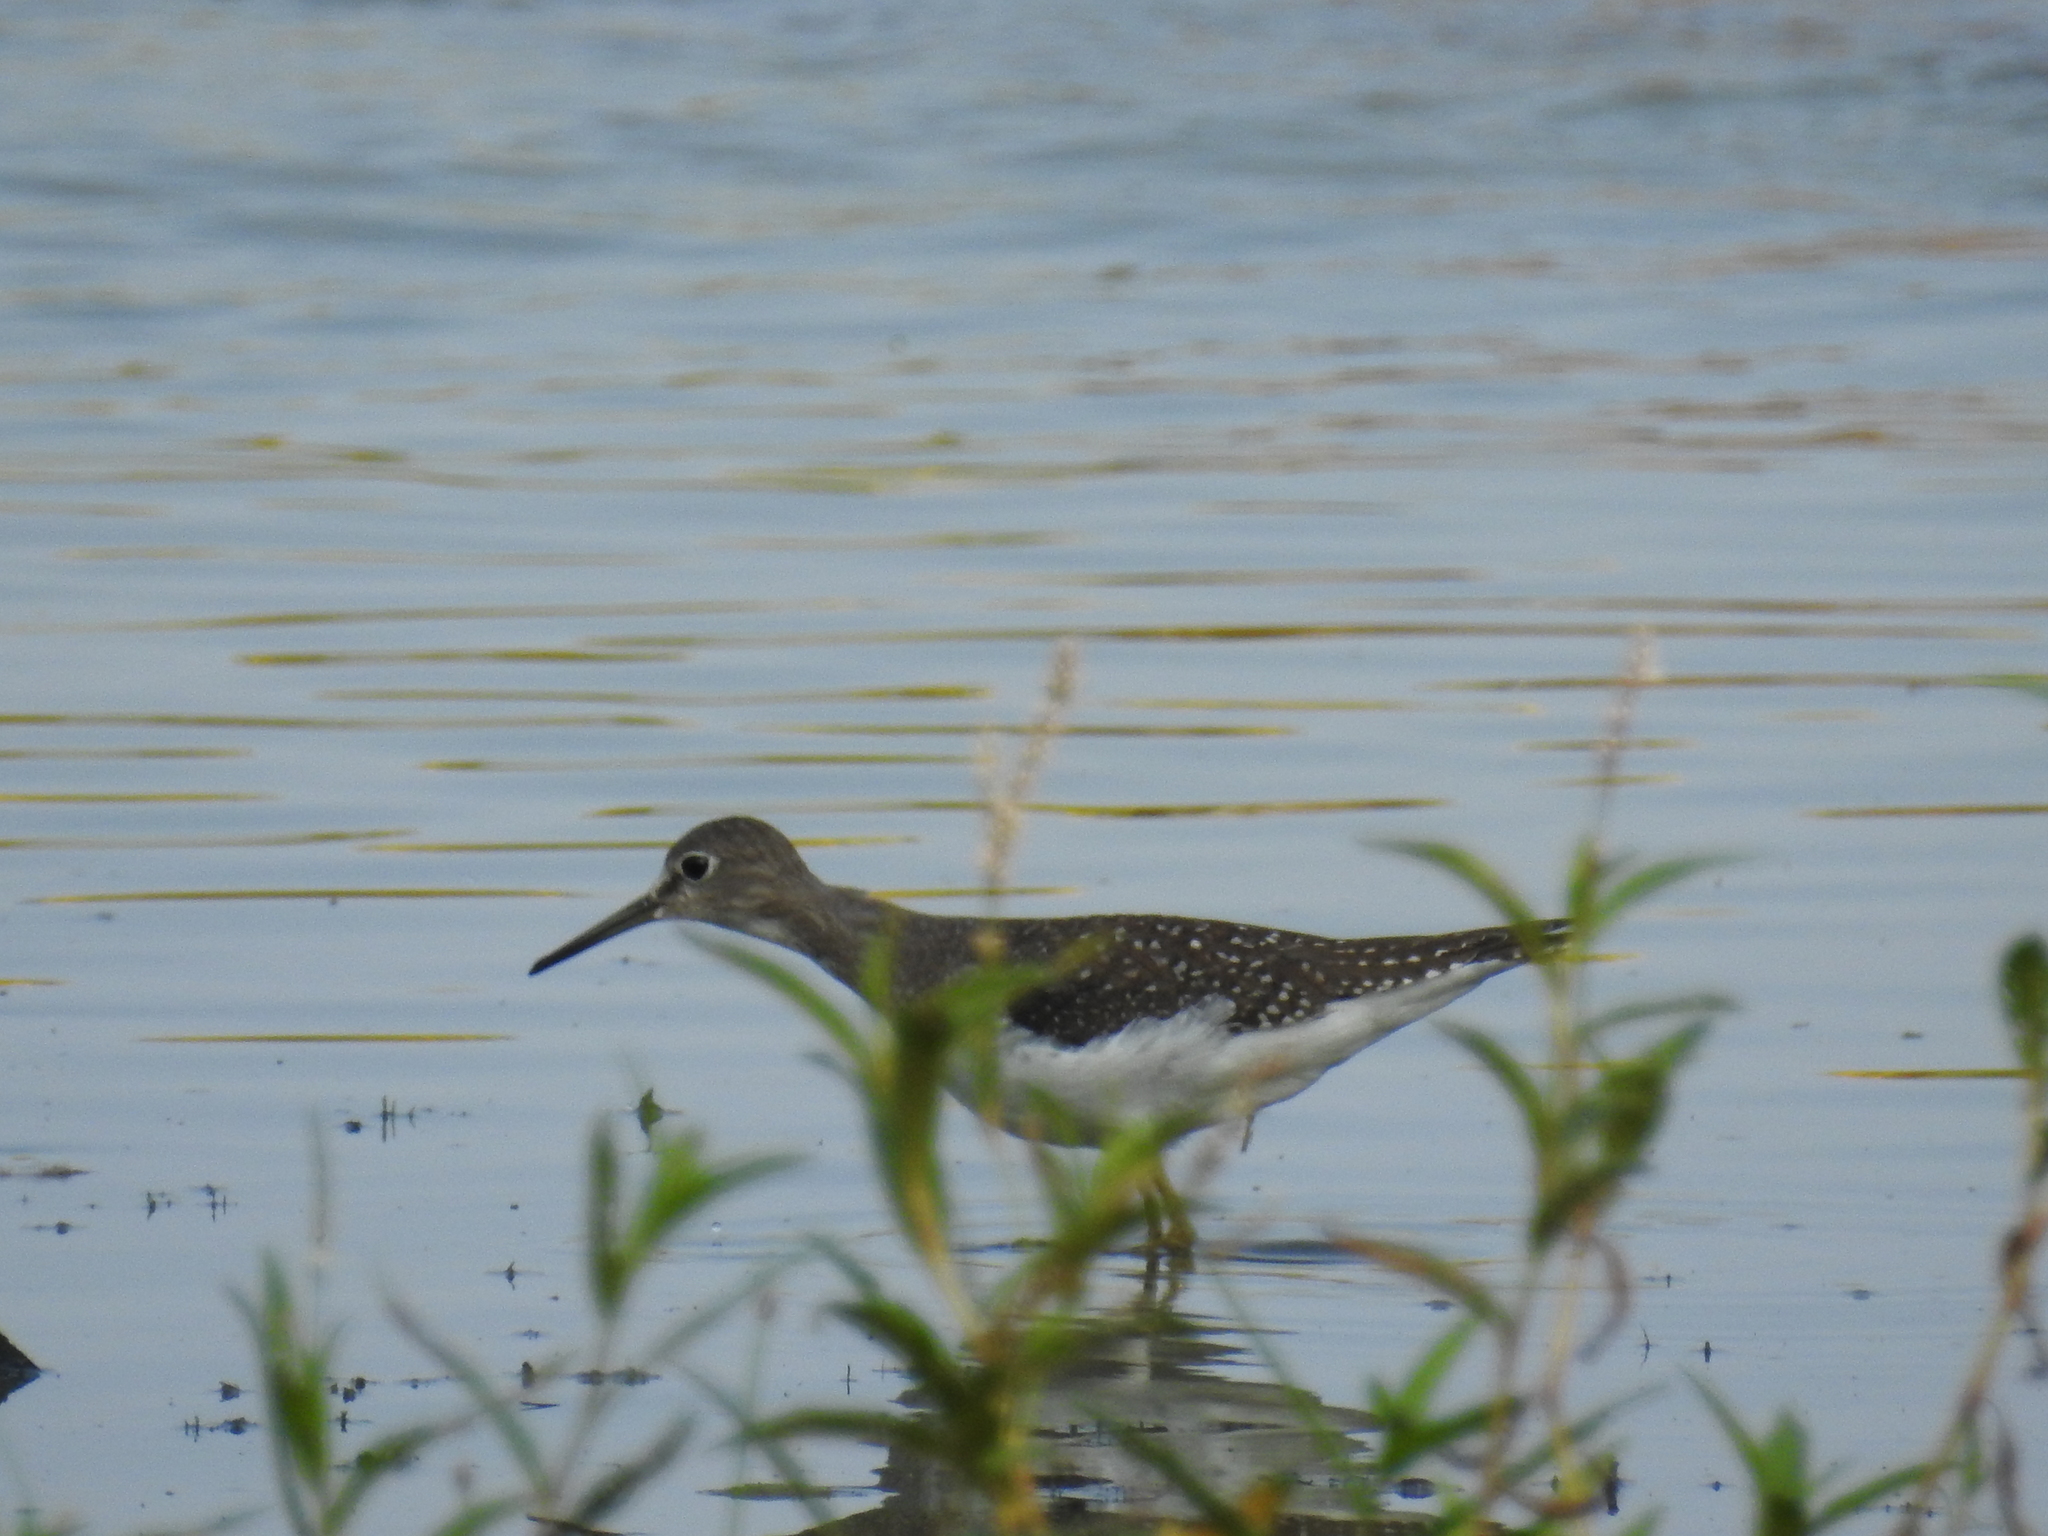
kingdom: Animalia
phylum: Chordata
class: Aves
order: Charadriiformes
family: Scolopacidae
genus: Tringa
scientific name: Tringa solitaria
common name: Solitary sandpiper
